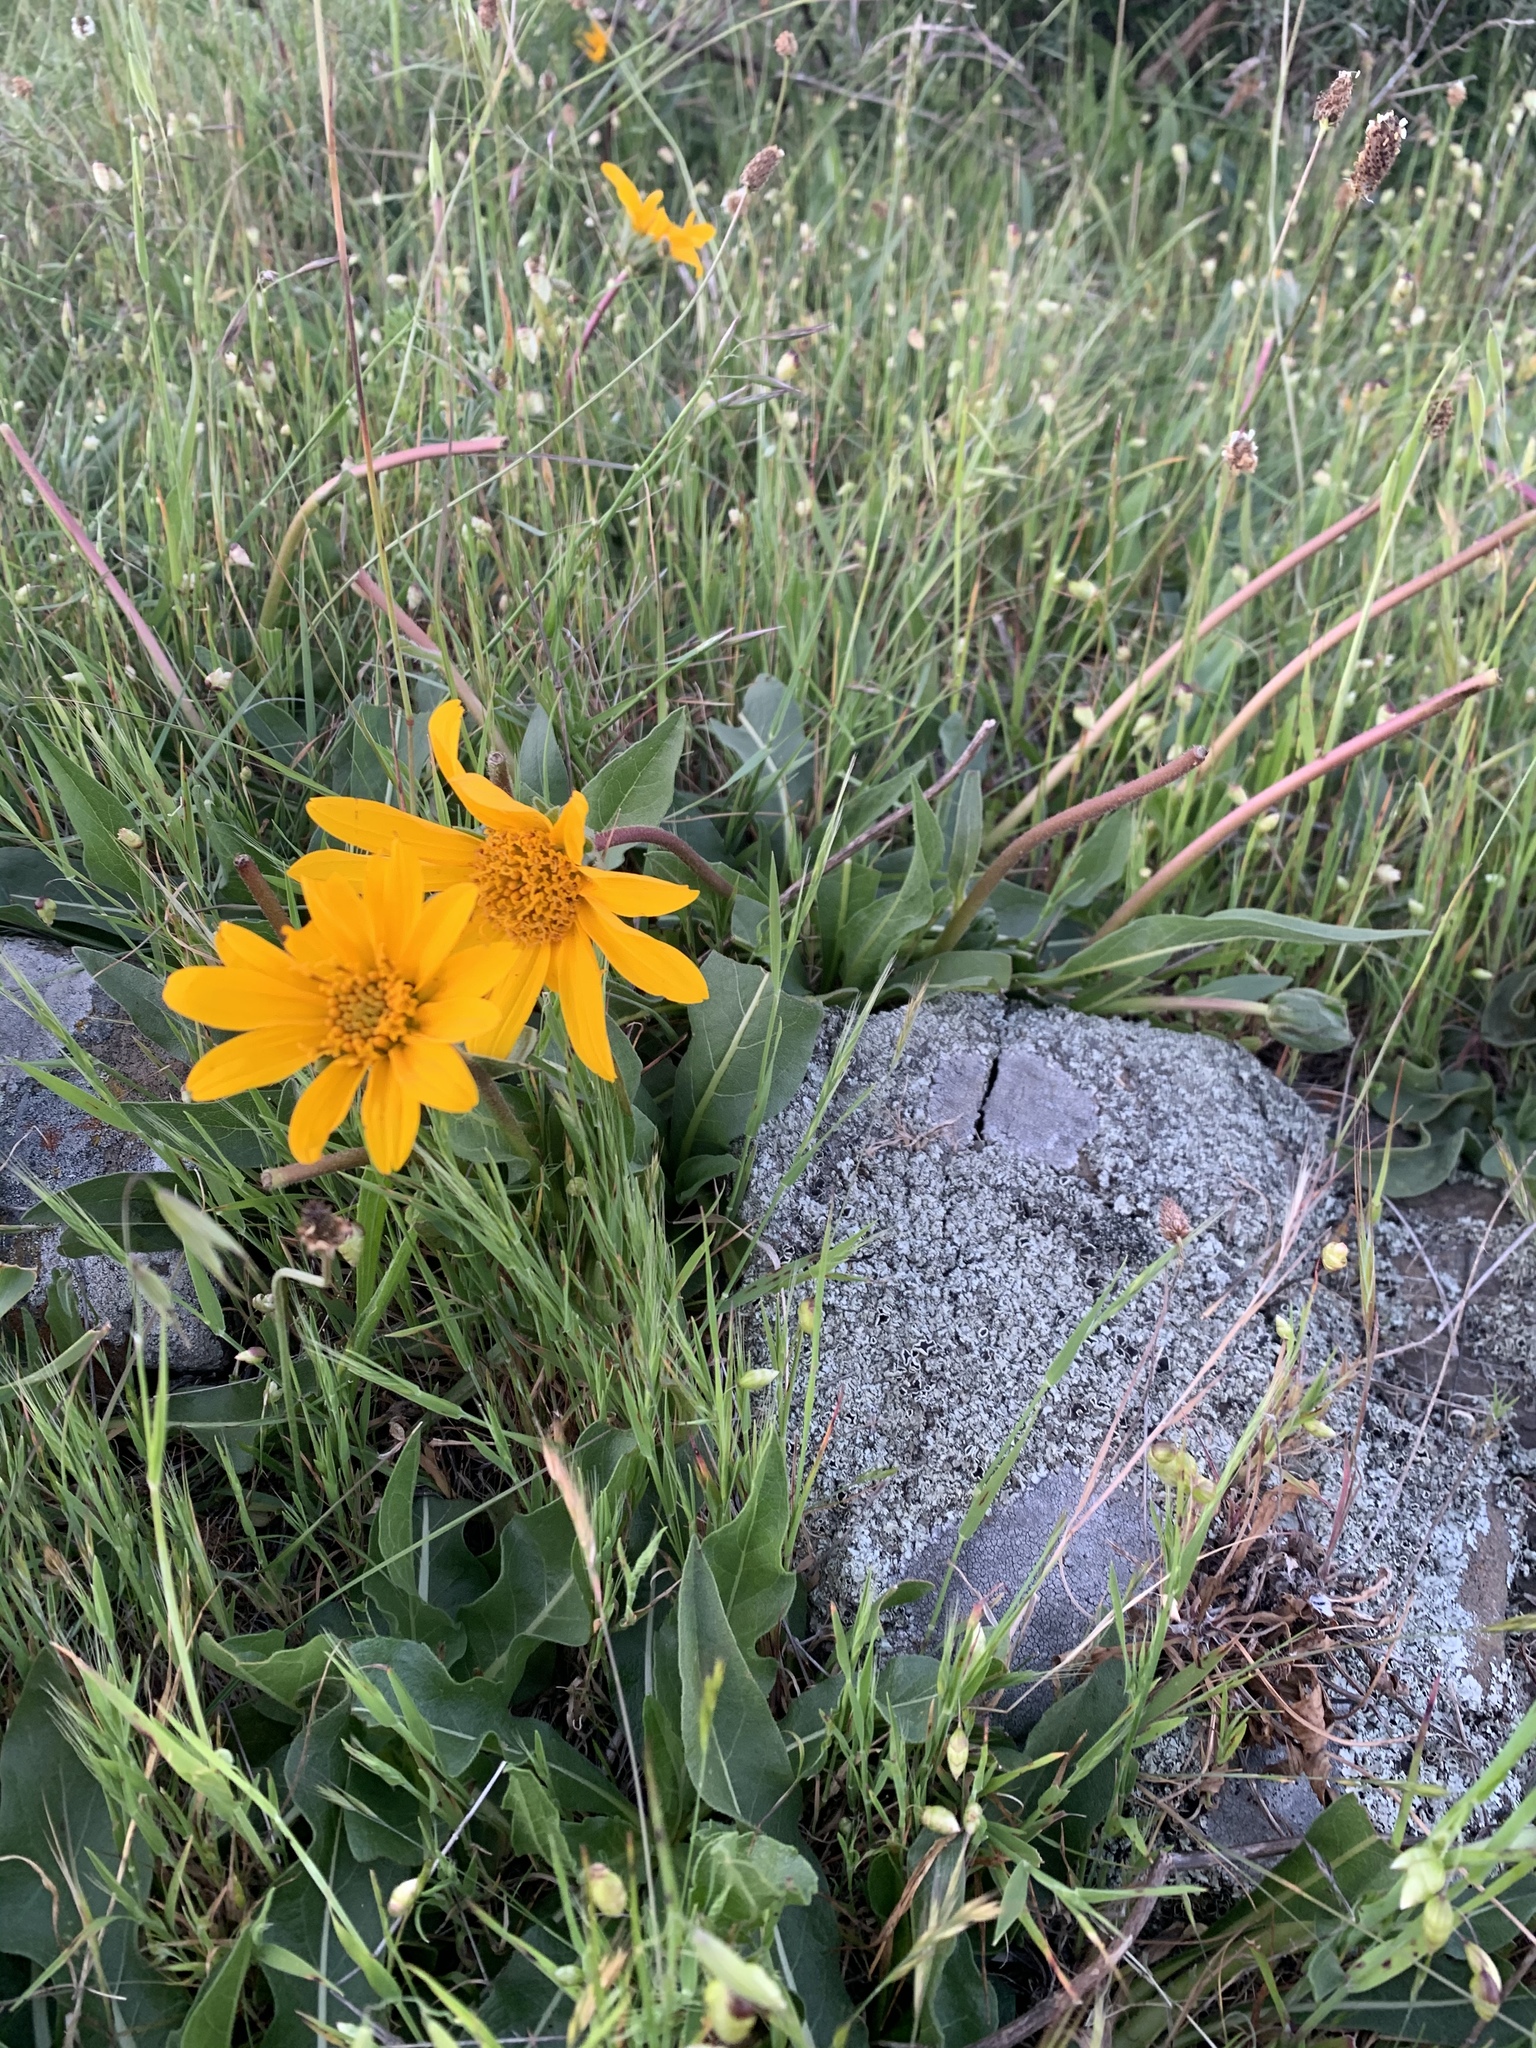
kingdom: Plantae
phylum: Tracheophyta
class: Magnoliopsida
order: Asterales
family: Asteraceae
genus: Wyethia
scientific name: Wyethia angustifolia
